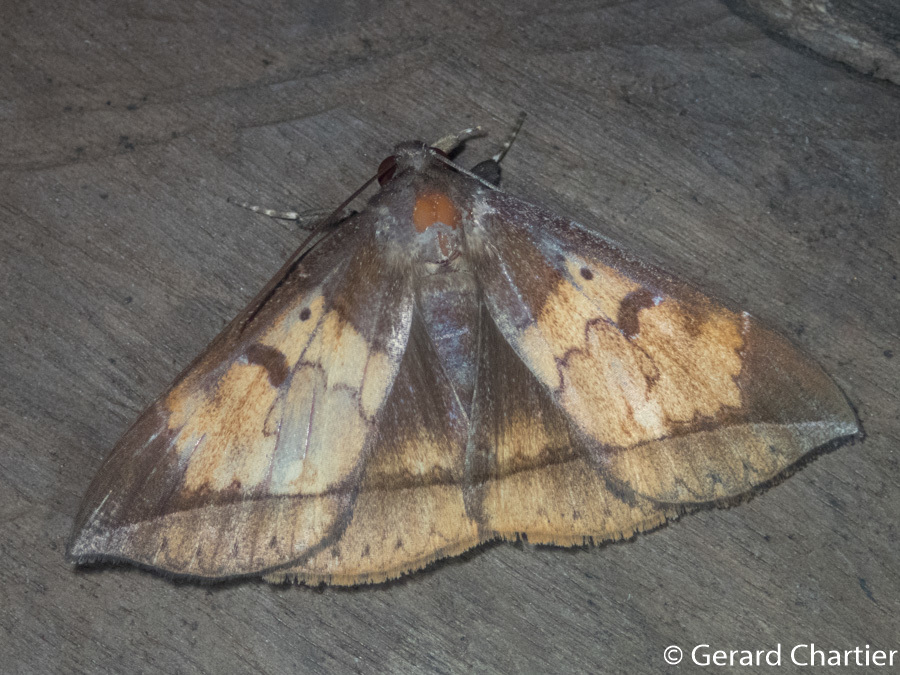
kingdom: Animalia
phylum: Arthropoda
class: Insecta
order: Lepidoptera
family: Erebidae
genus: Platyja
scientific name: Platyja umbrina
